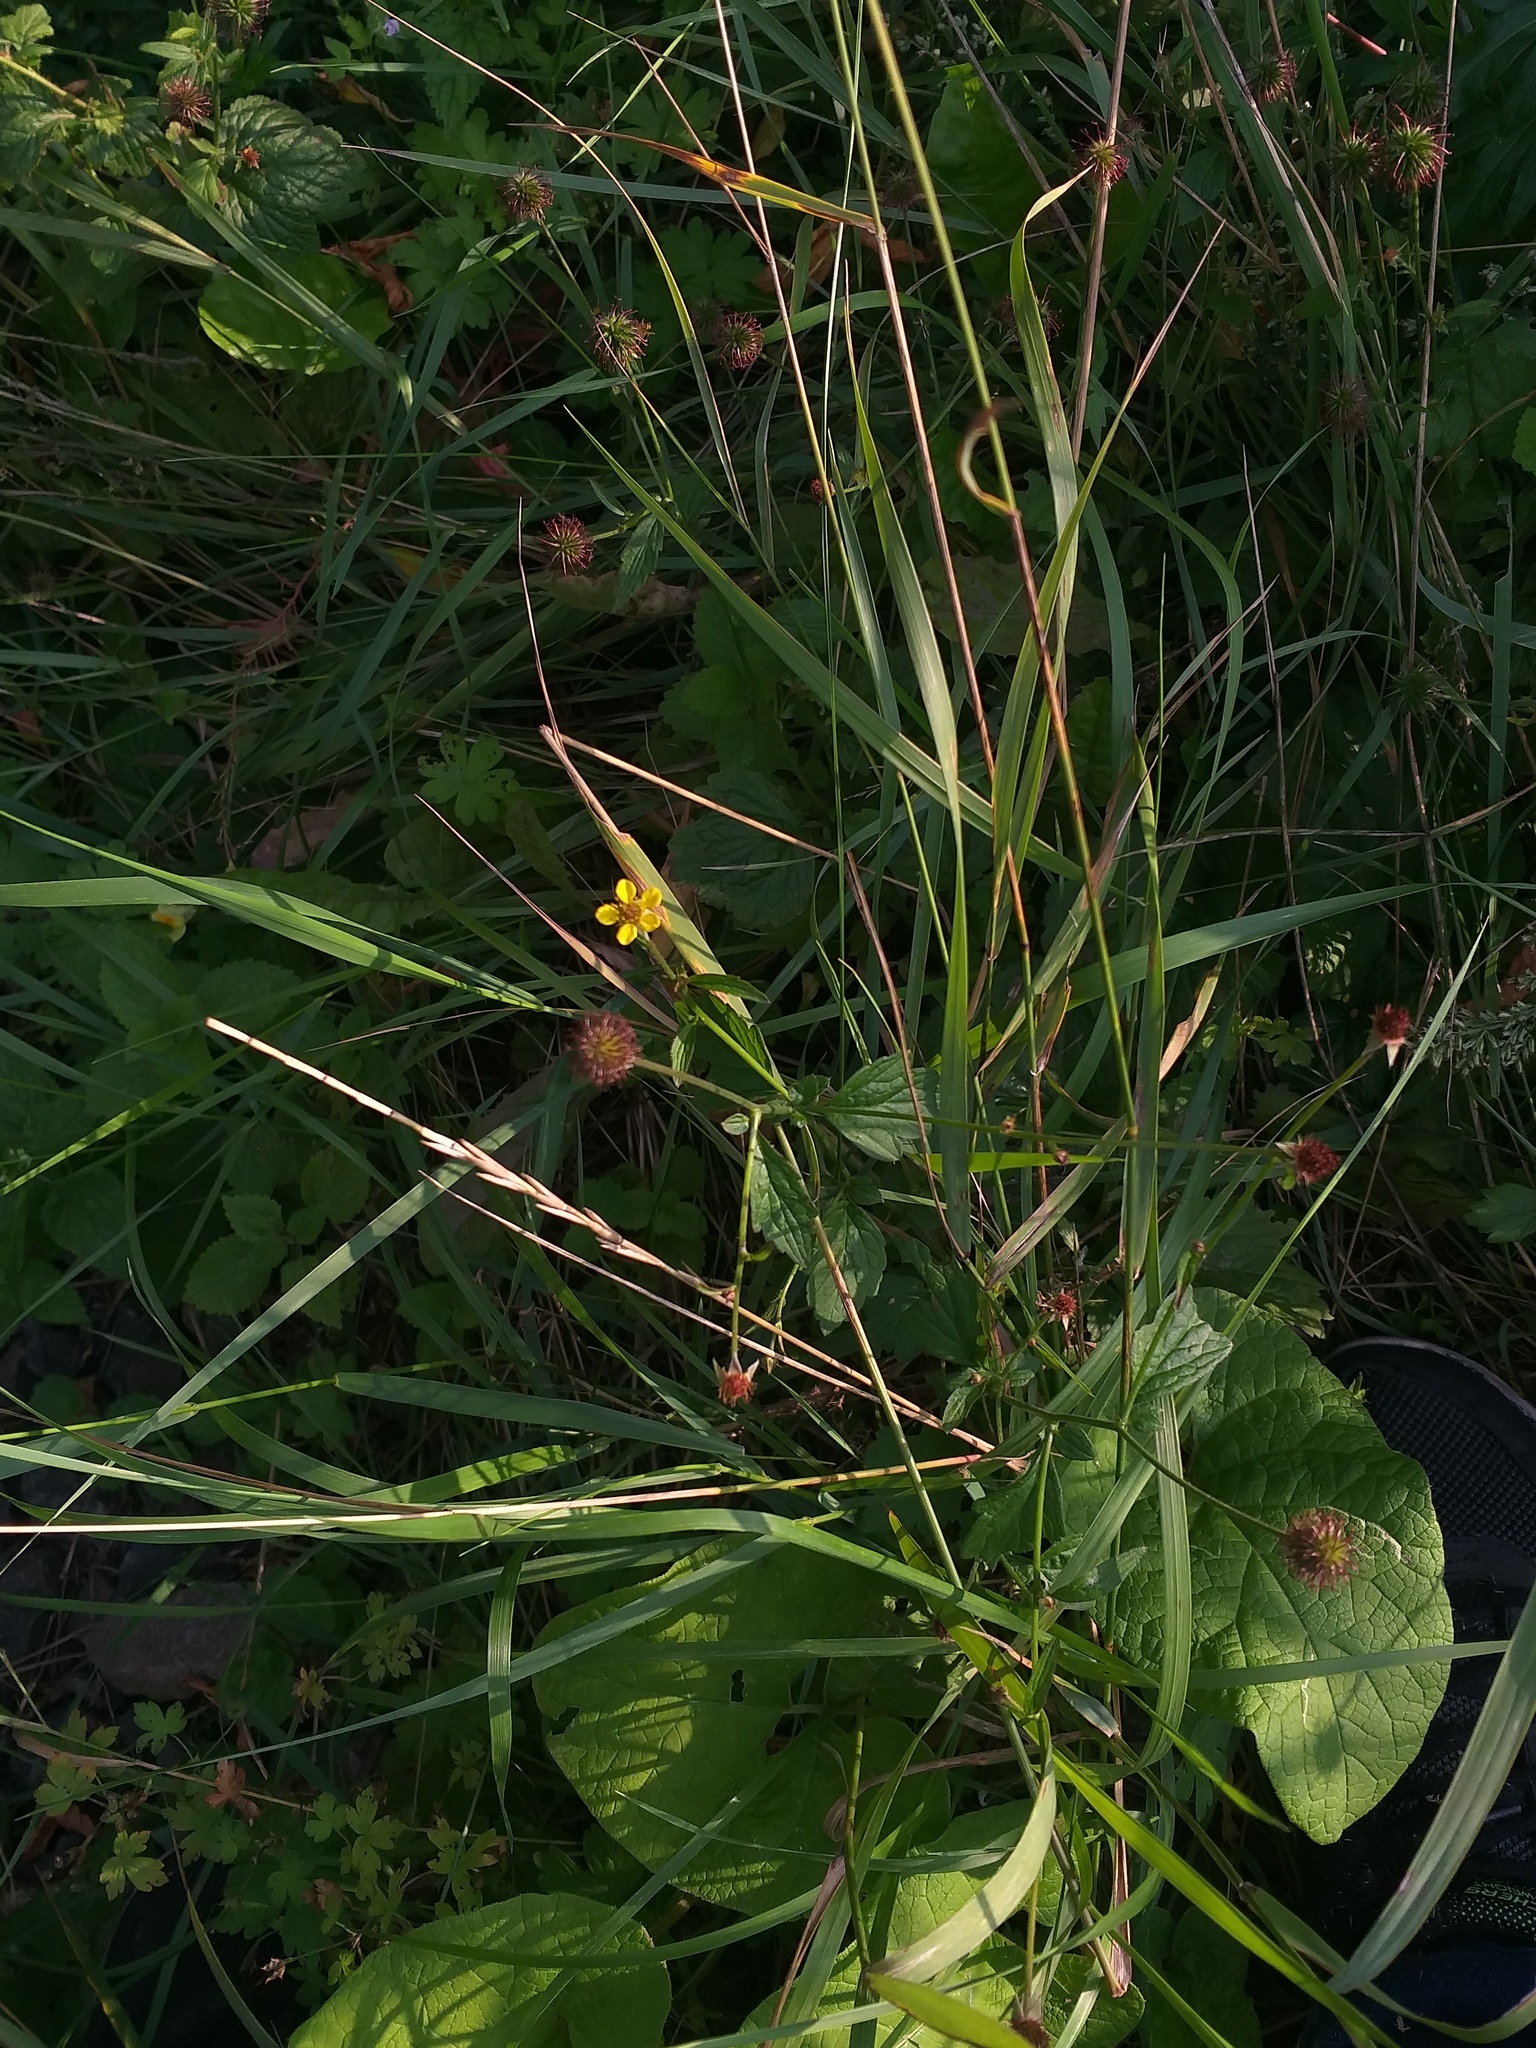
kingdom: Plantae
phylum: Tracheophyta
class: Magnoliopsida
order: Rosales
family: Rosaceae
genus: Geum
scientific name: Geum urbanum
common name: Wood avens
